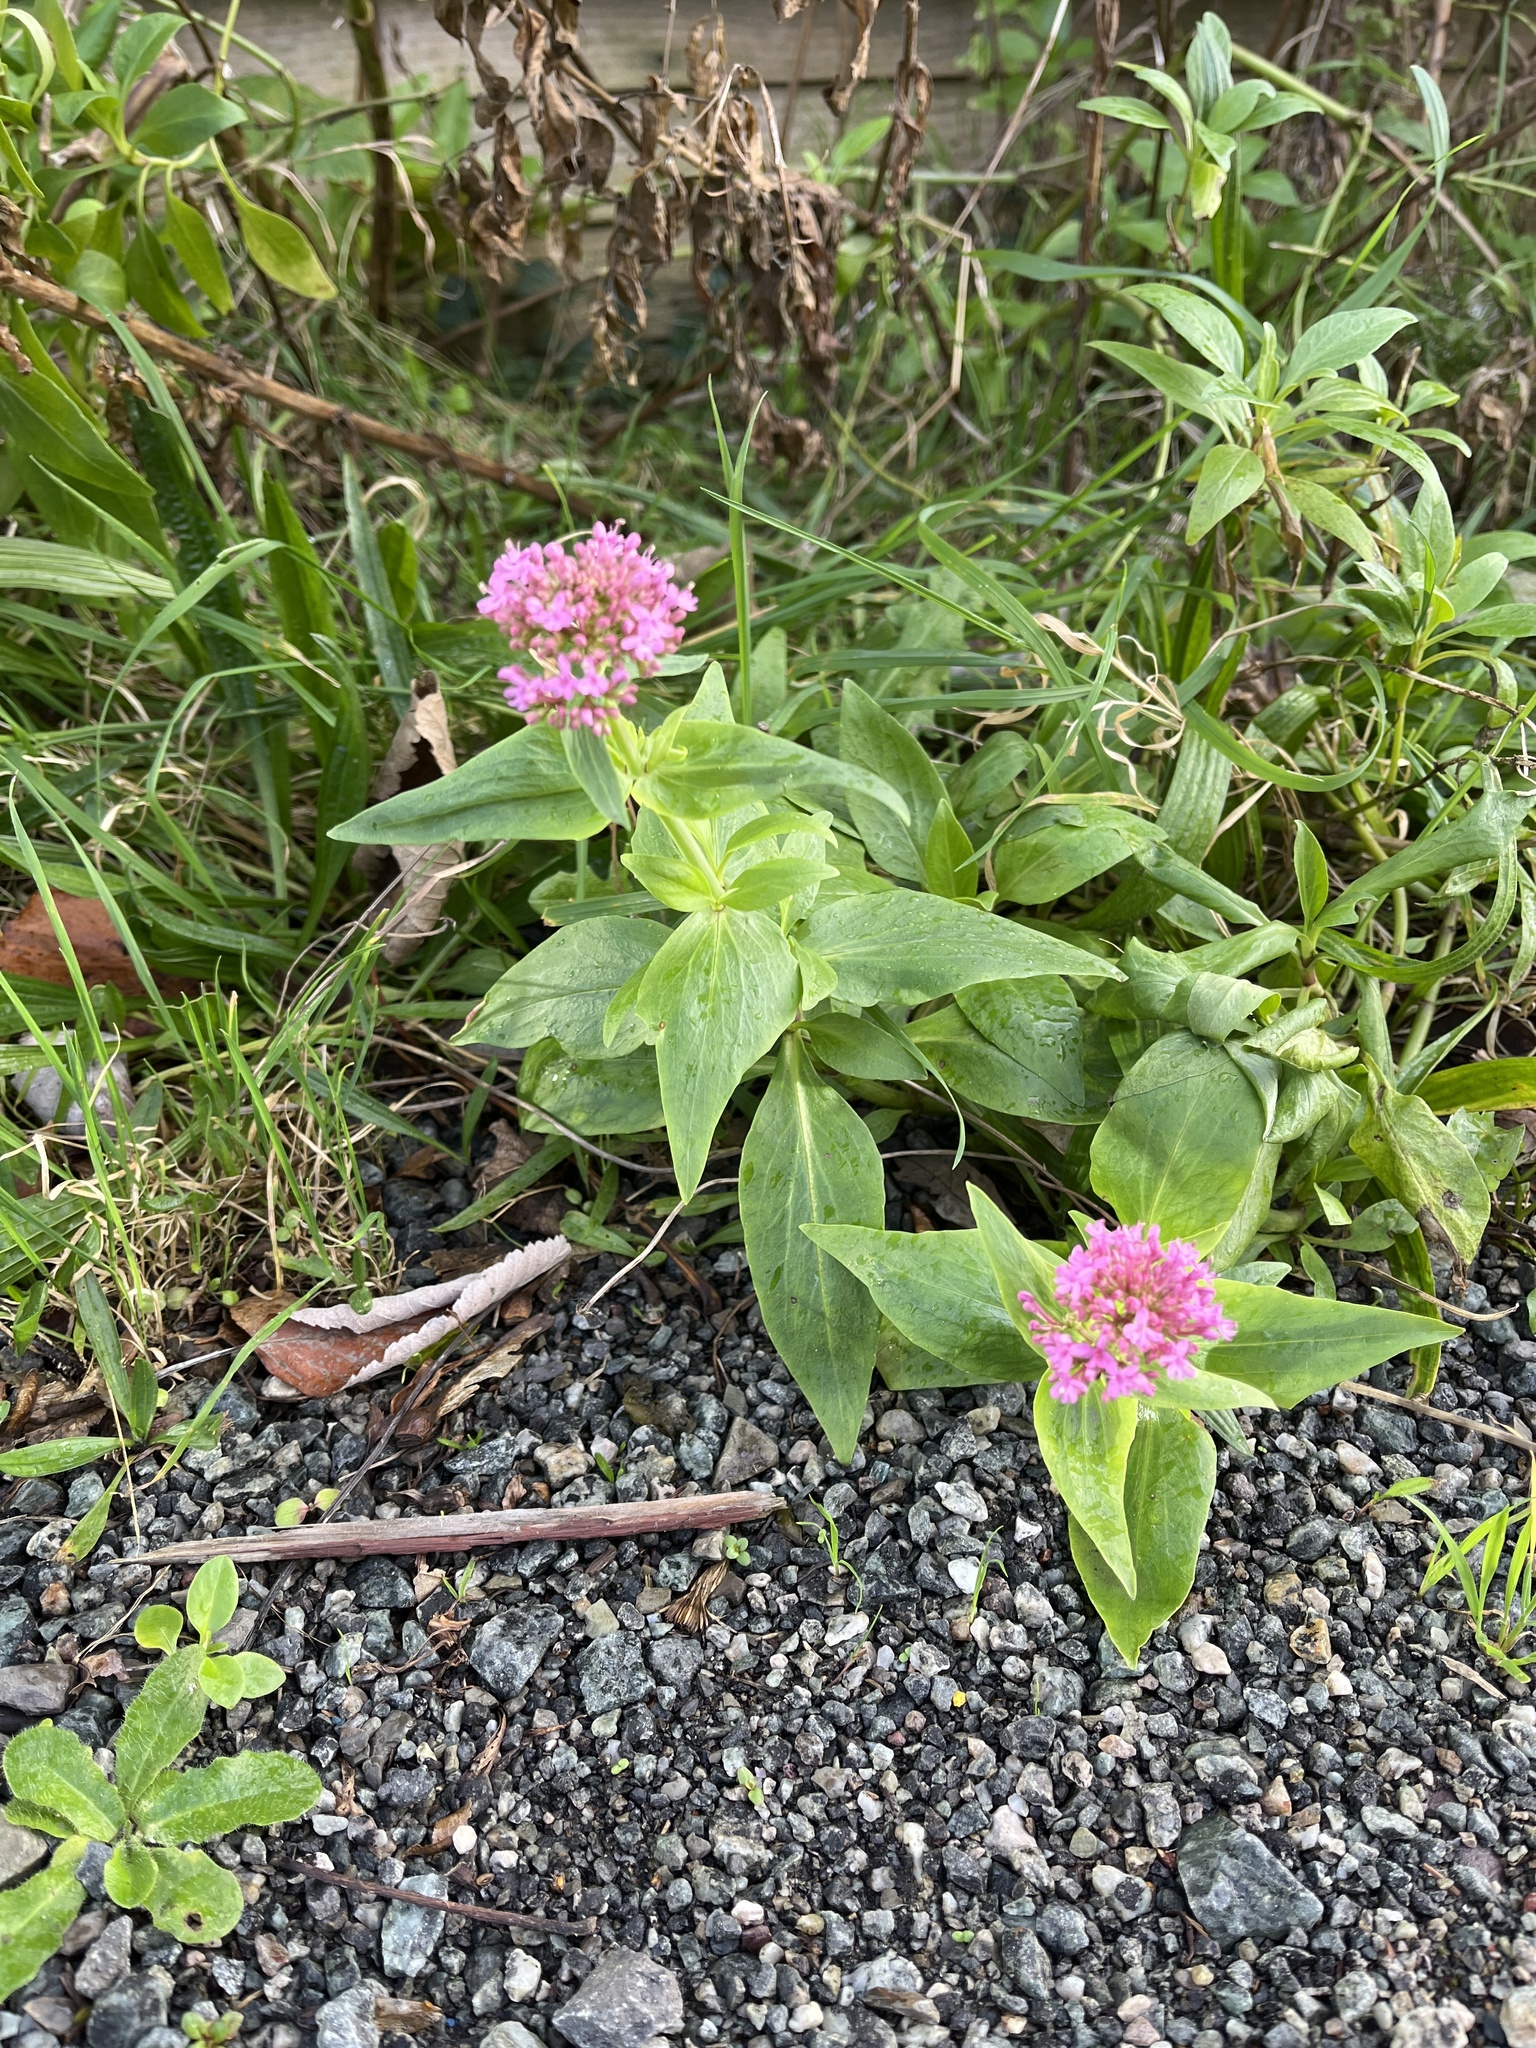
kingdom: Plantae
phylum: Tracheophyta
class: Magnoliopsida
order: Dipsacales
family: Caprifoliaceae
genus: Centranthus
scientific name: Centranthus ruber
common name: Red valerian
